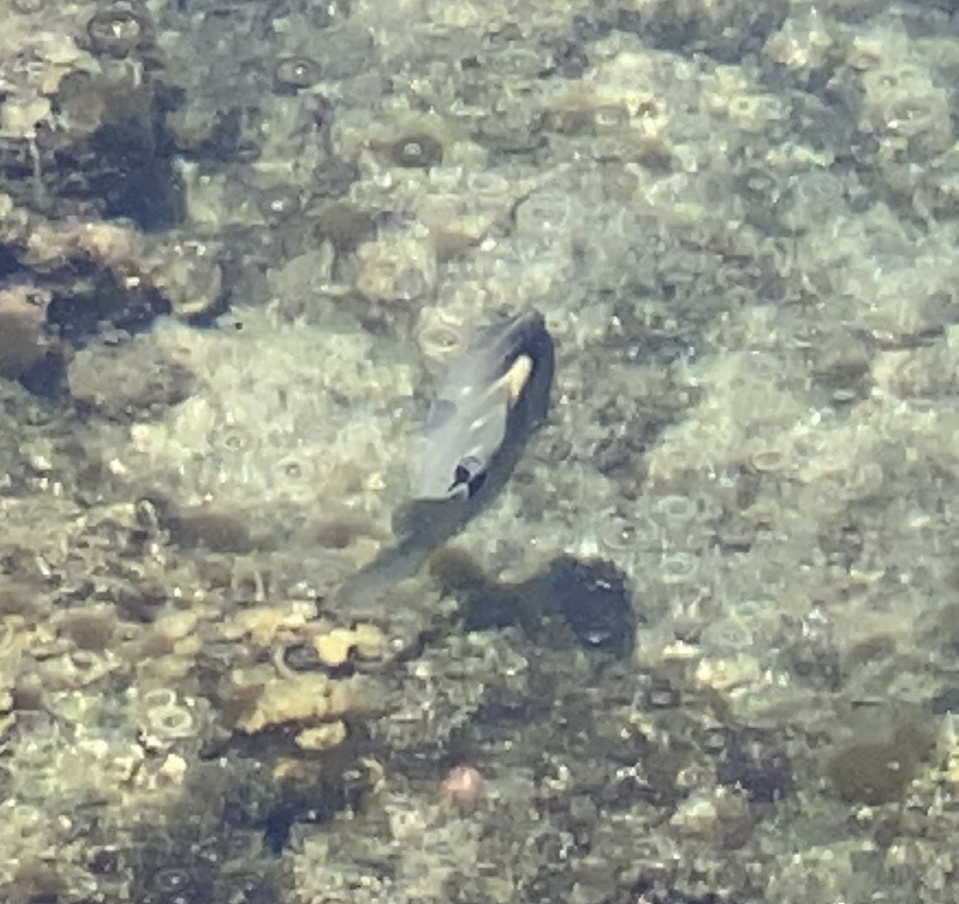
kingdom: Animalia
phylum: Chordata
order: Perciformes
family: Pomacentridae
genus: Abudefduf
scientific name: Abudefduf sordidus
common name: Blackspot sergeant
